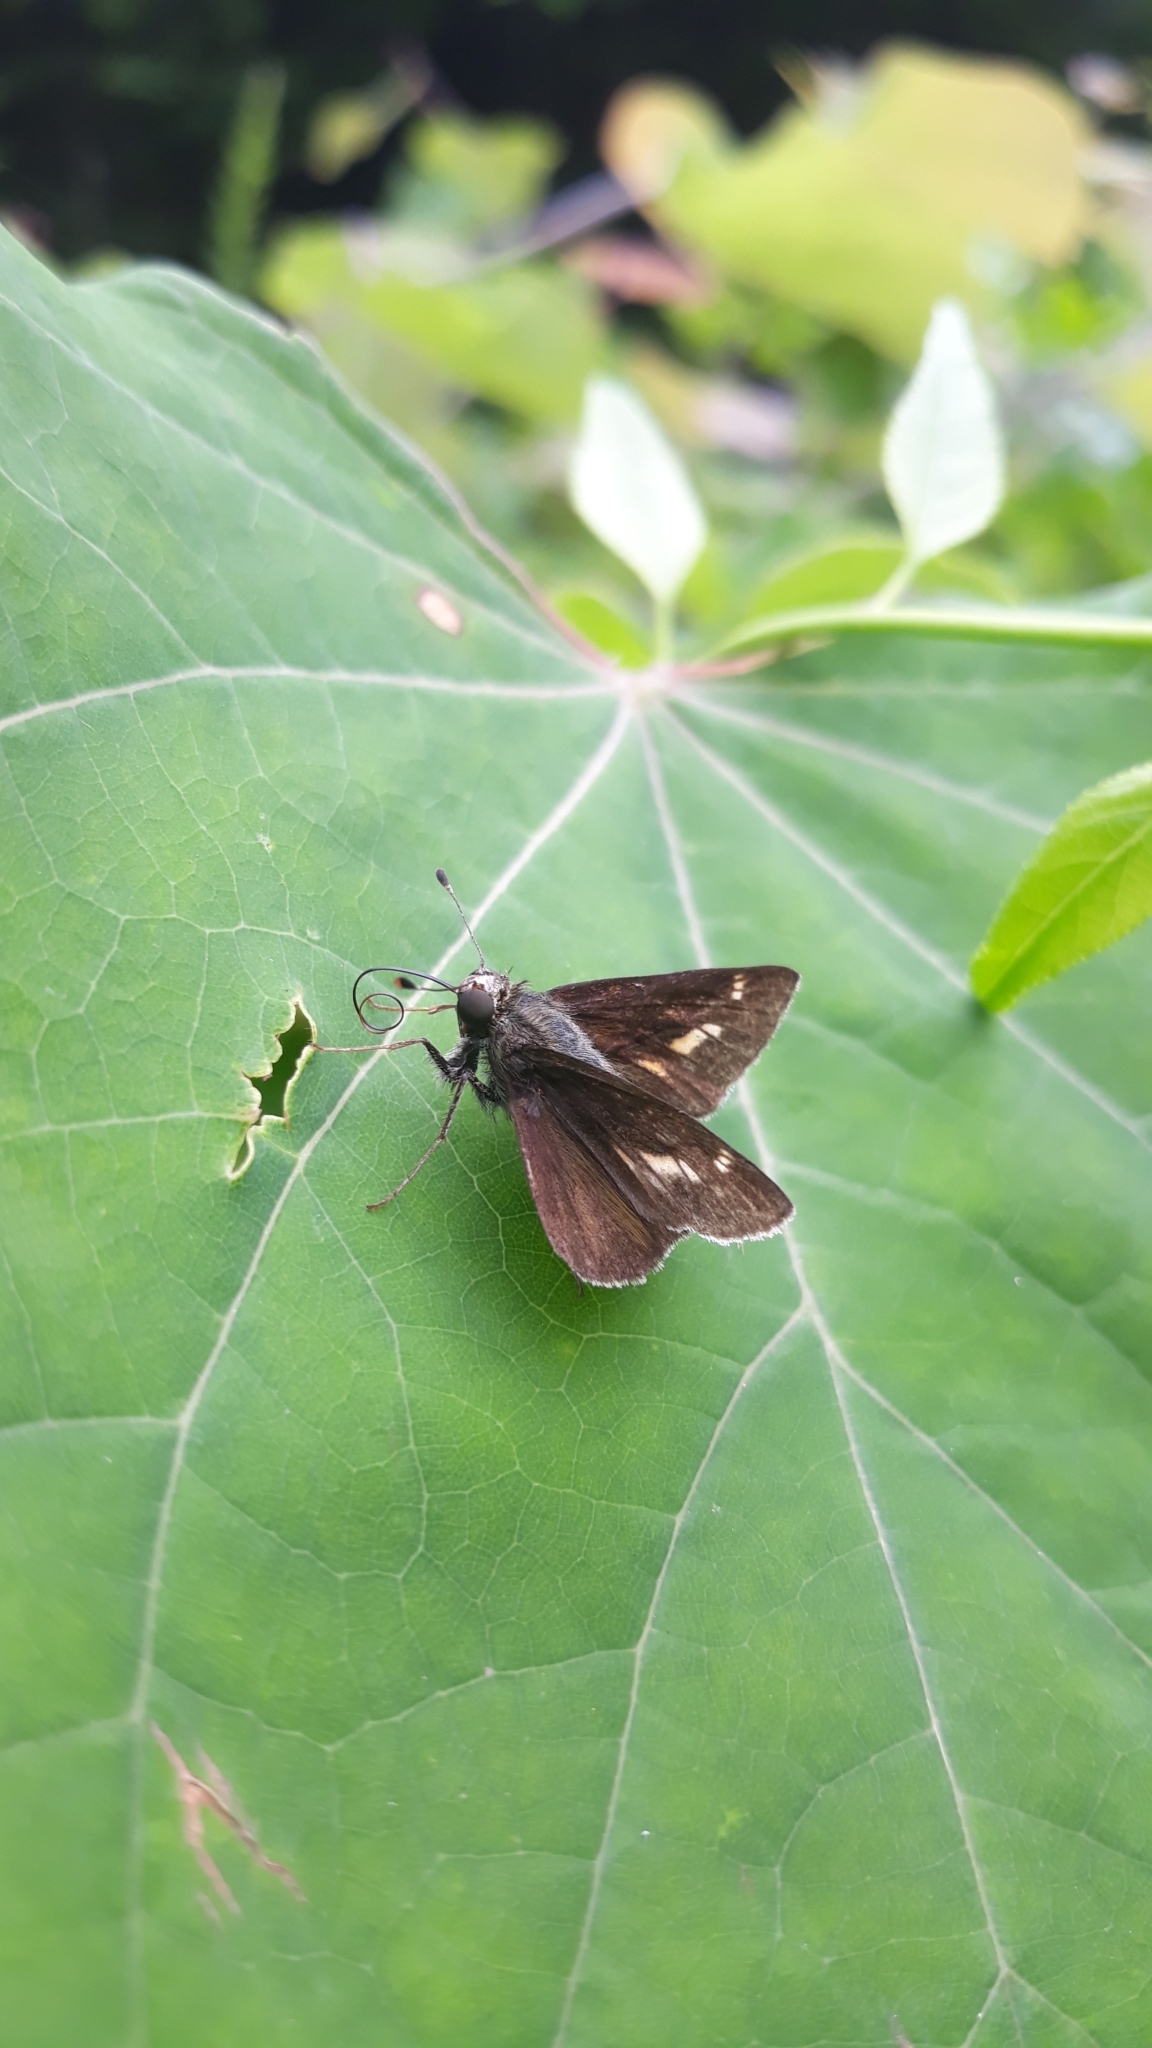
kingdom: Animalia
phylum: Arthropoda
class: Insecta
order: Lepidoptera
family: Hesperiidae
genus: Vernia
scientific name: Vernia verna
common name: Little glassywing
